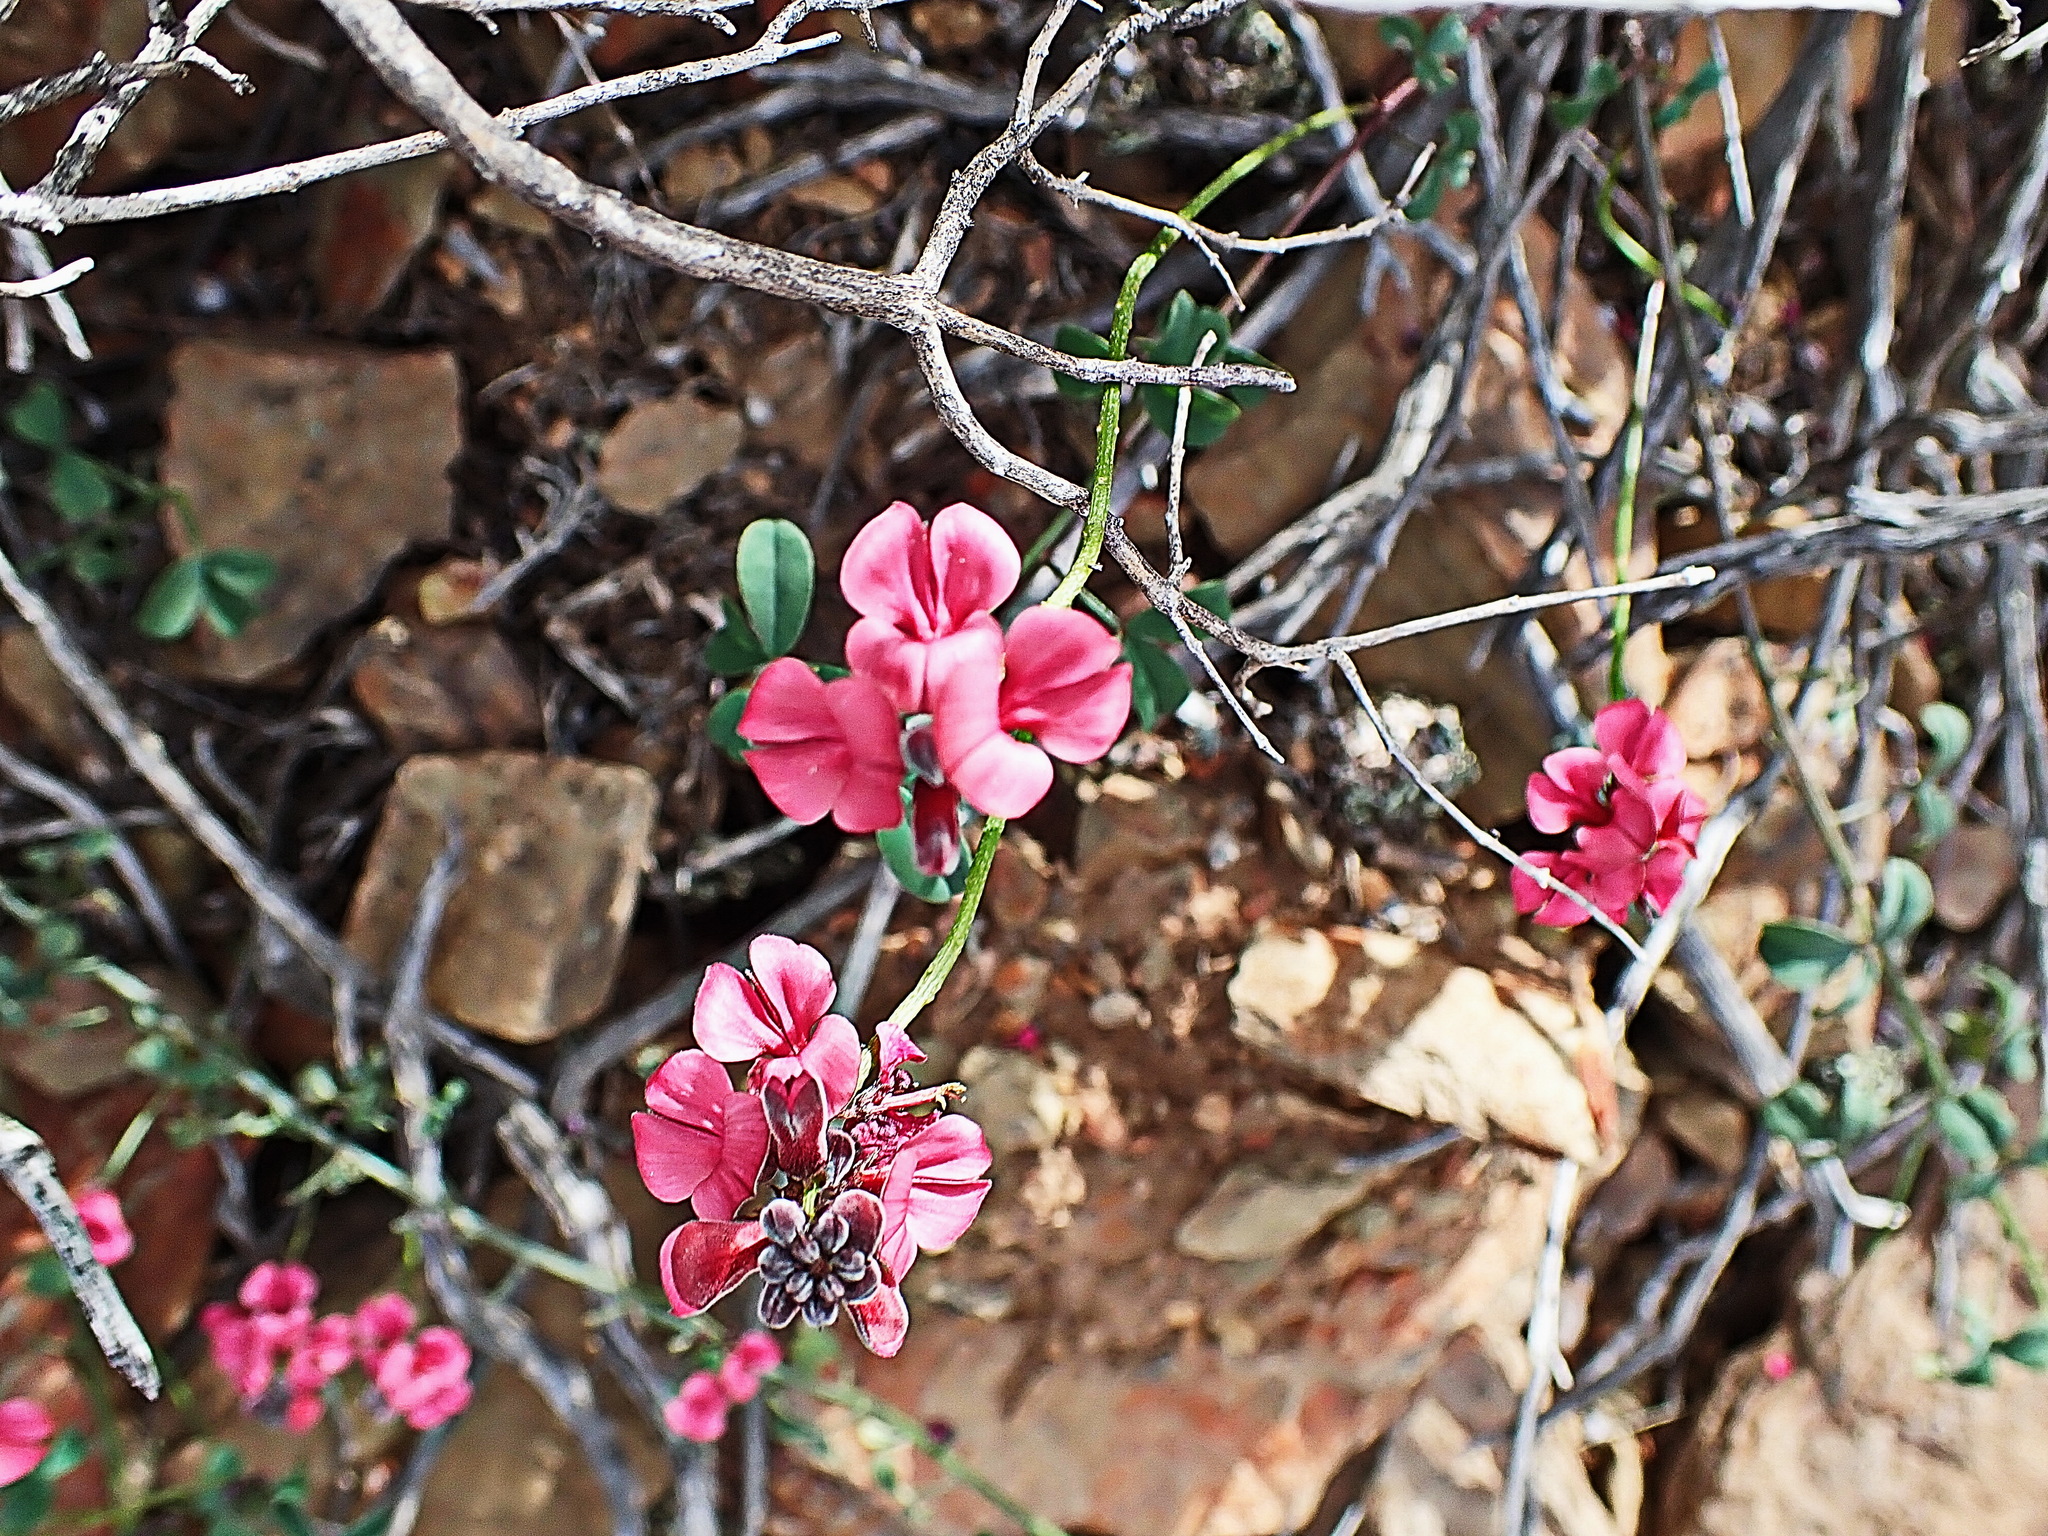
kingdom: Plantae
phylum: Tracheophyta
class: Magnoliopsida
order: Fabales
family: Fabaceae
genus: Indigofera
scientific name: Indigofera heterophylla
